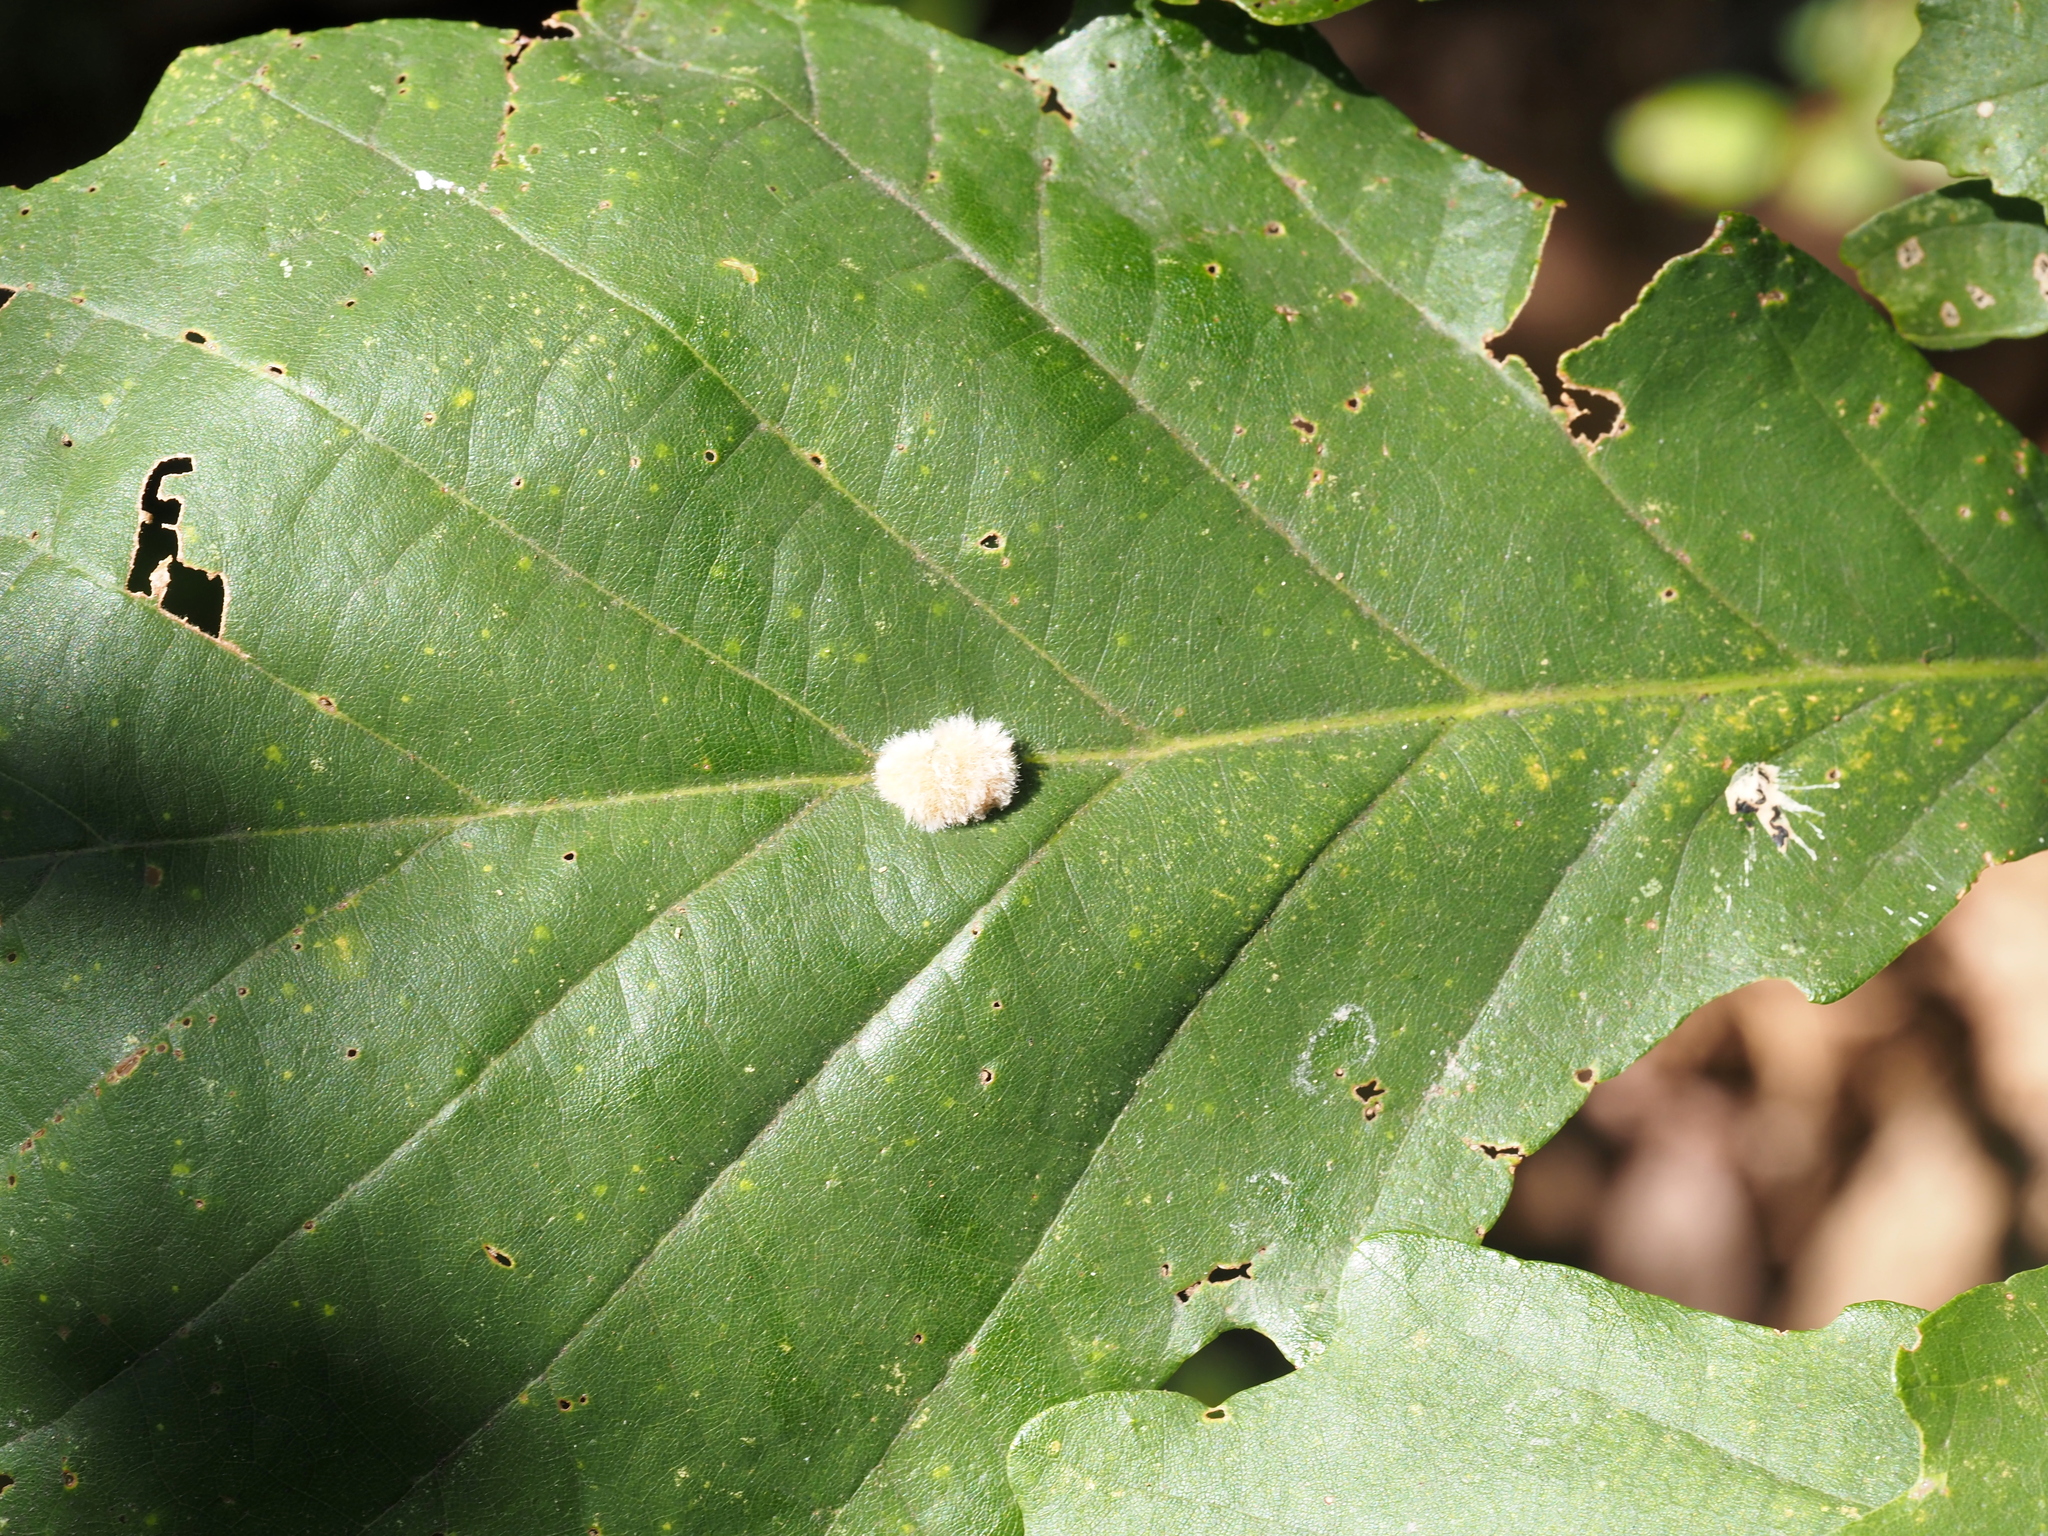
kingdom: Animalia
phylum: Arthropoda
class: Insecta
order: Hymenoptera
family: Cynipidae
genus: Andricus
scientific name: Andricus quercusflocci
